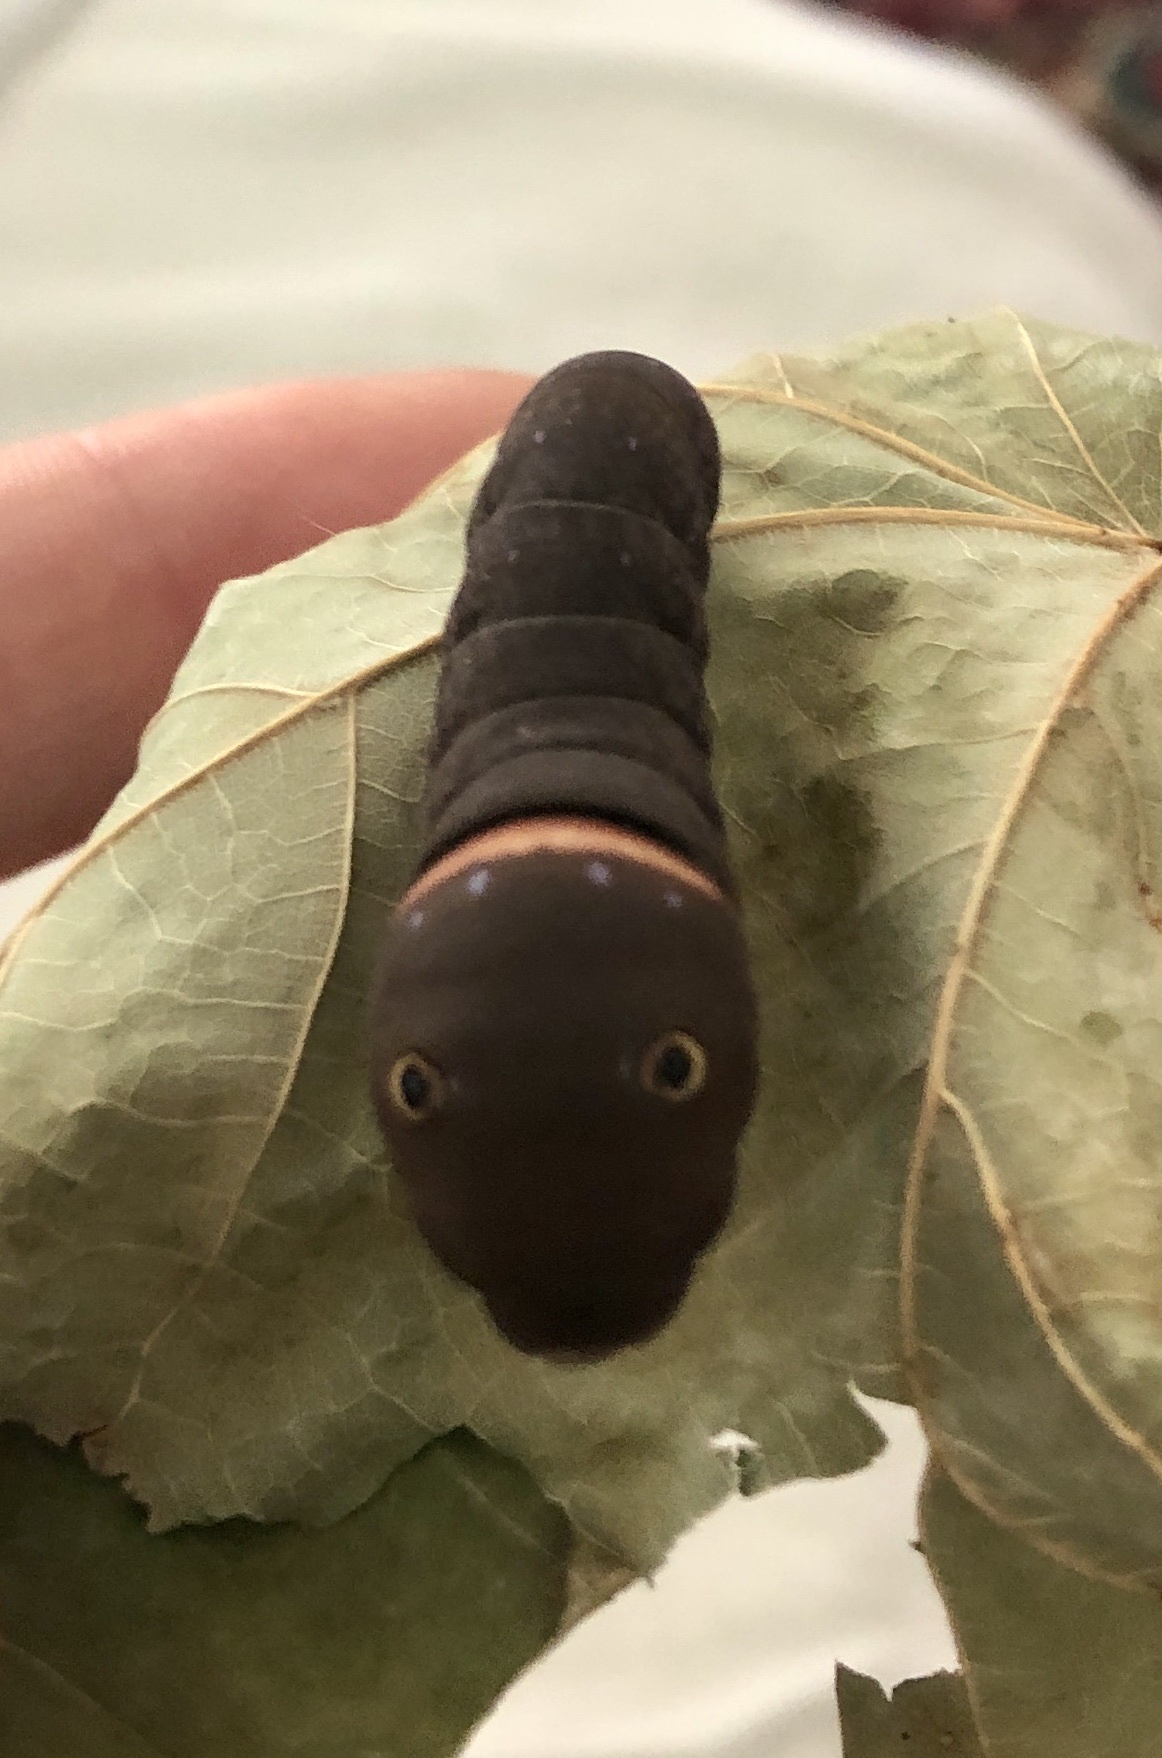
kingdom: Animalia
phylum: Arthropoda
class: Insecta
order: Lepidoptera
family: Papilionidae
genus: Papilio
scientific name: Papilio glaucus
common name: Tiger swallowtail
